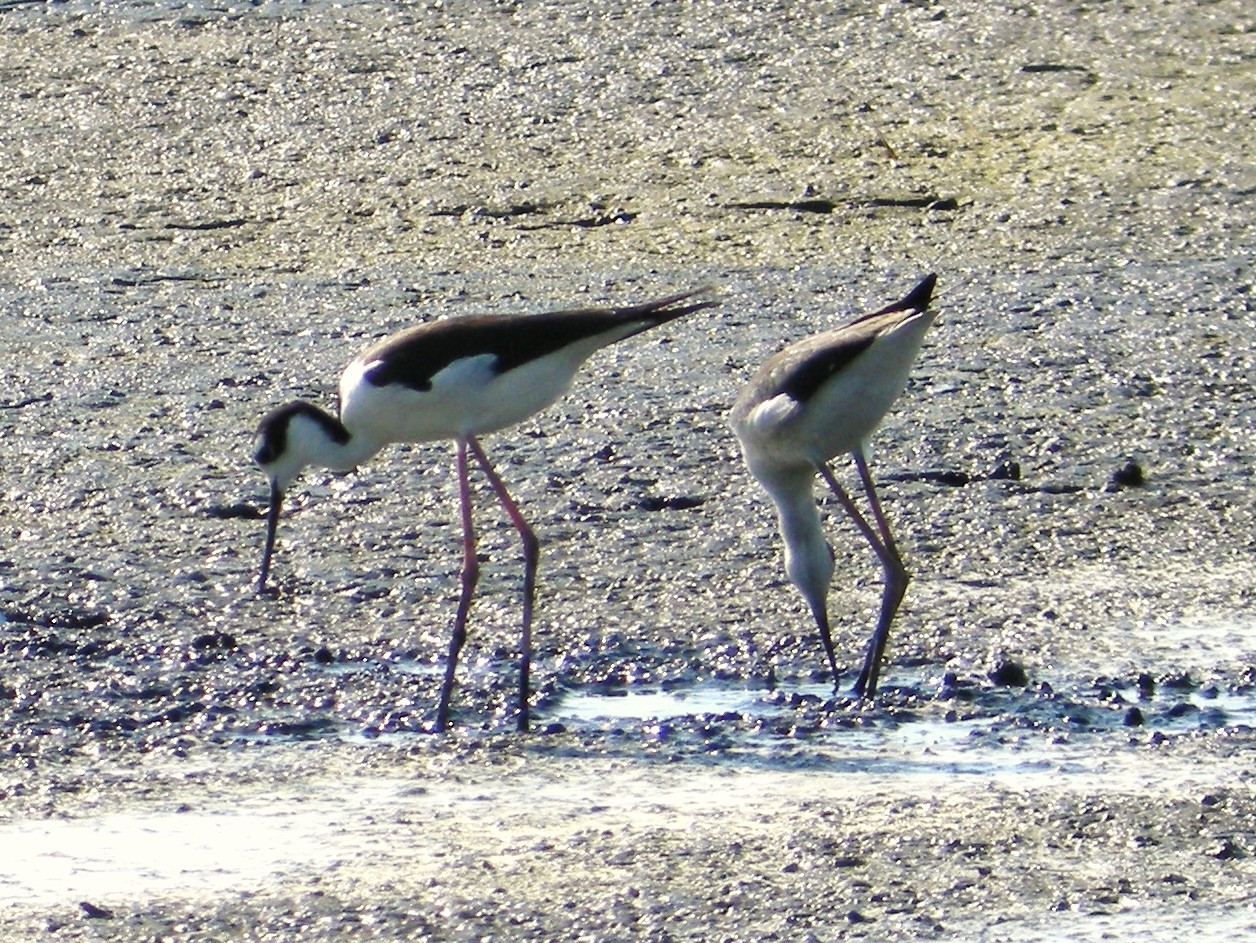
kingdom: Animalia
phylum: Chordata
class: Aves
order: Charadriiformes
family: Recurvirostridae
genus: Himantopus
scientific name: Himantopus mexicanus
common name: Black-necked stilt
